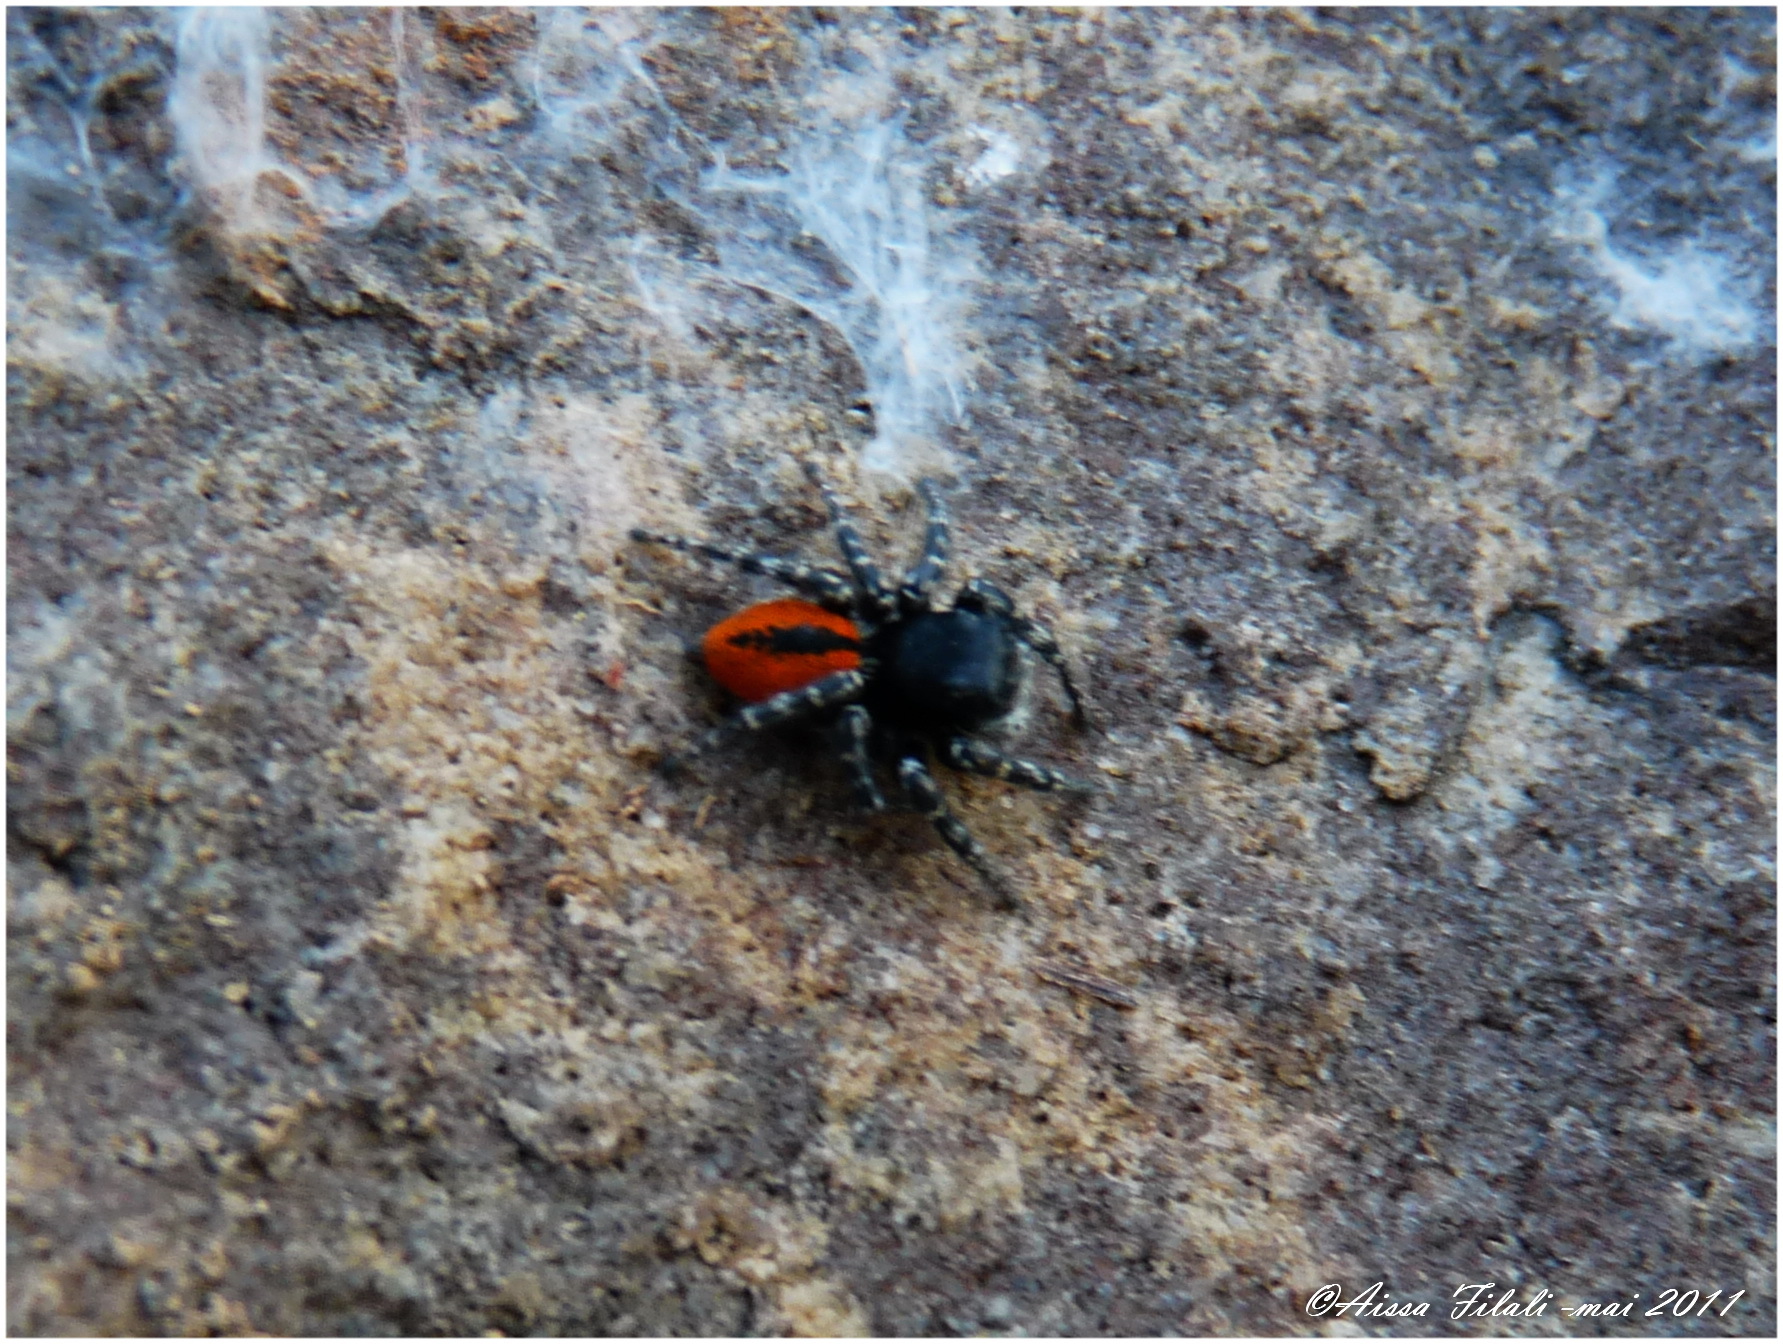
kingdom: Animalia
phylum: Arthropoda
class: Arachnida
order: Araneae
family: Salticidae
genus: Philaeus
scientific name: Philaeus chrysops
